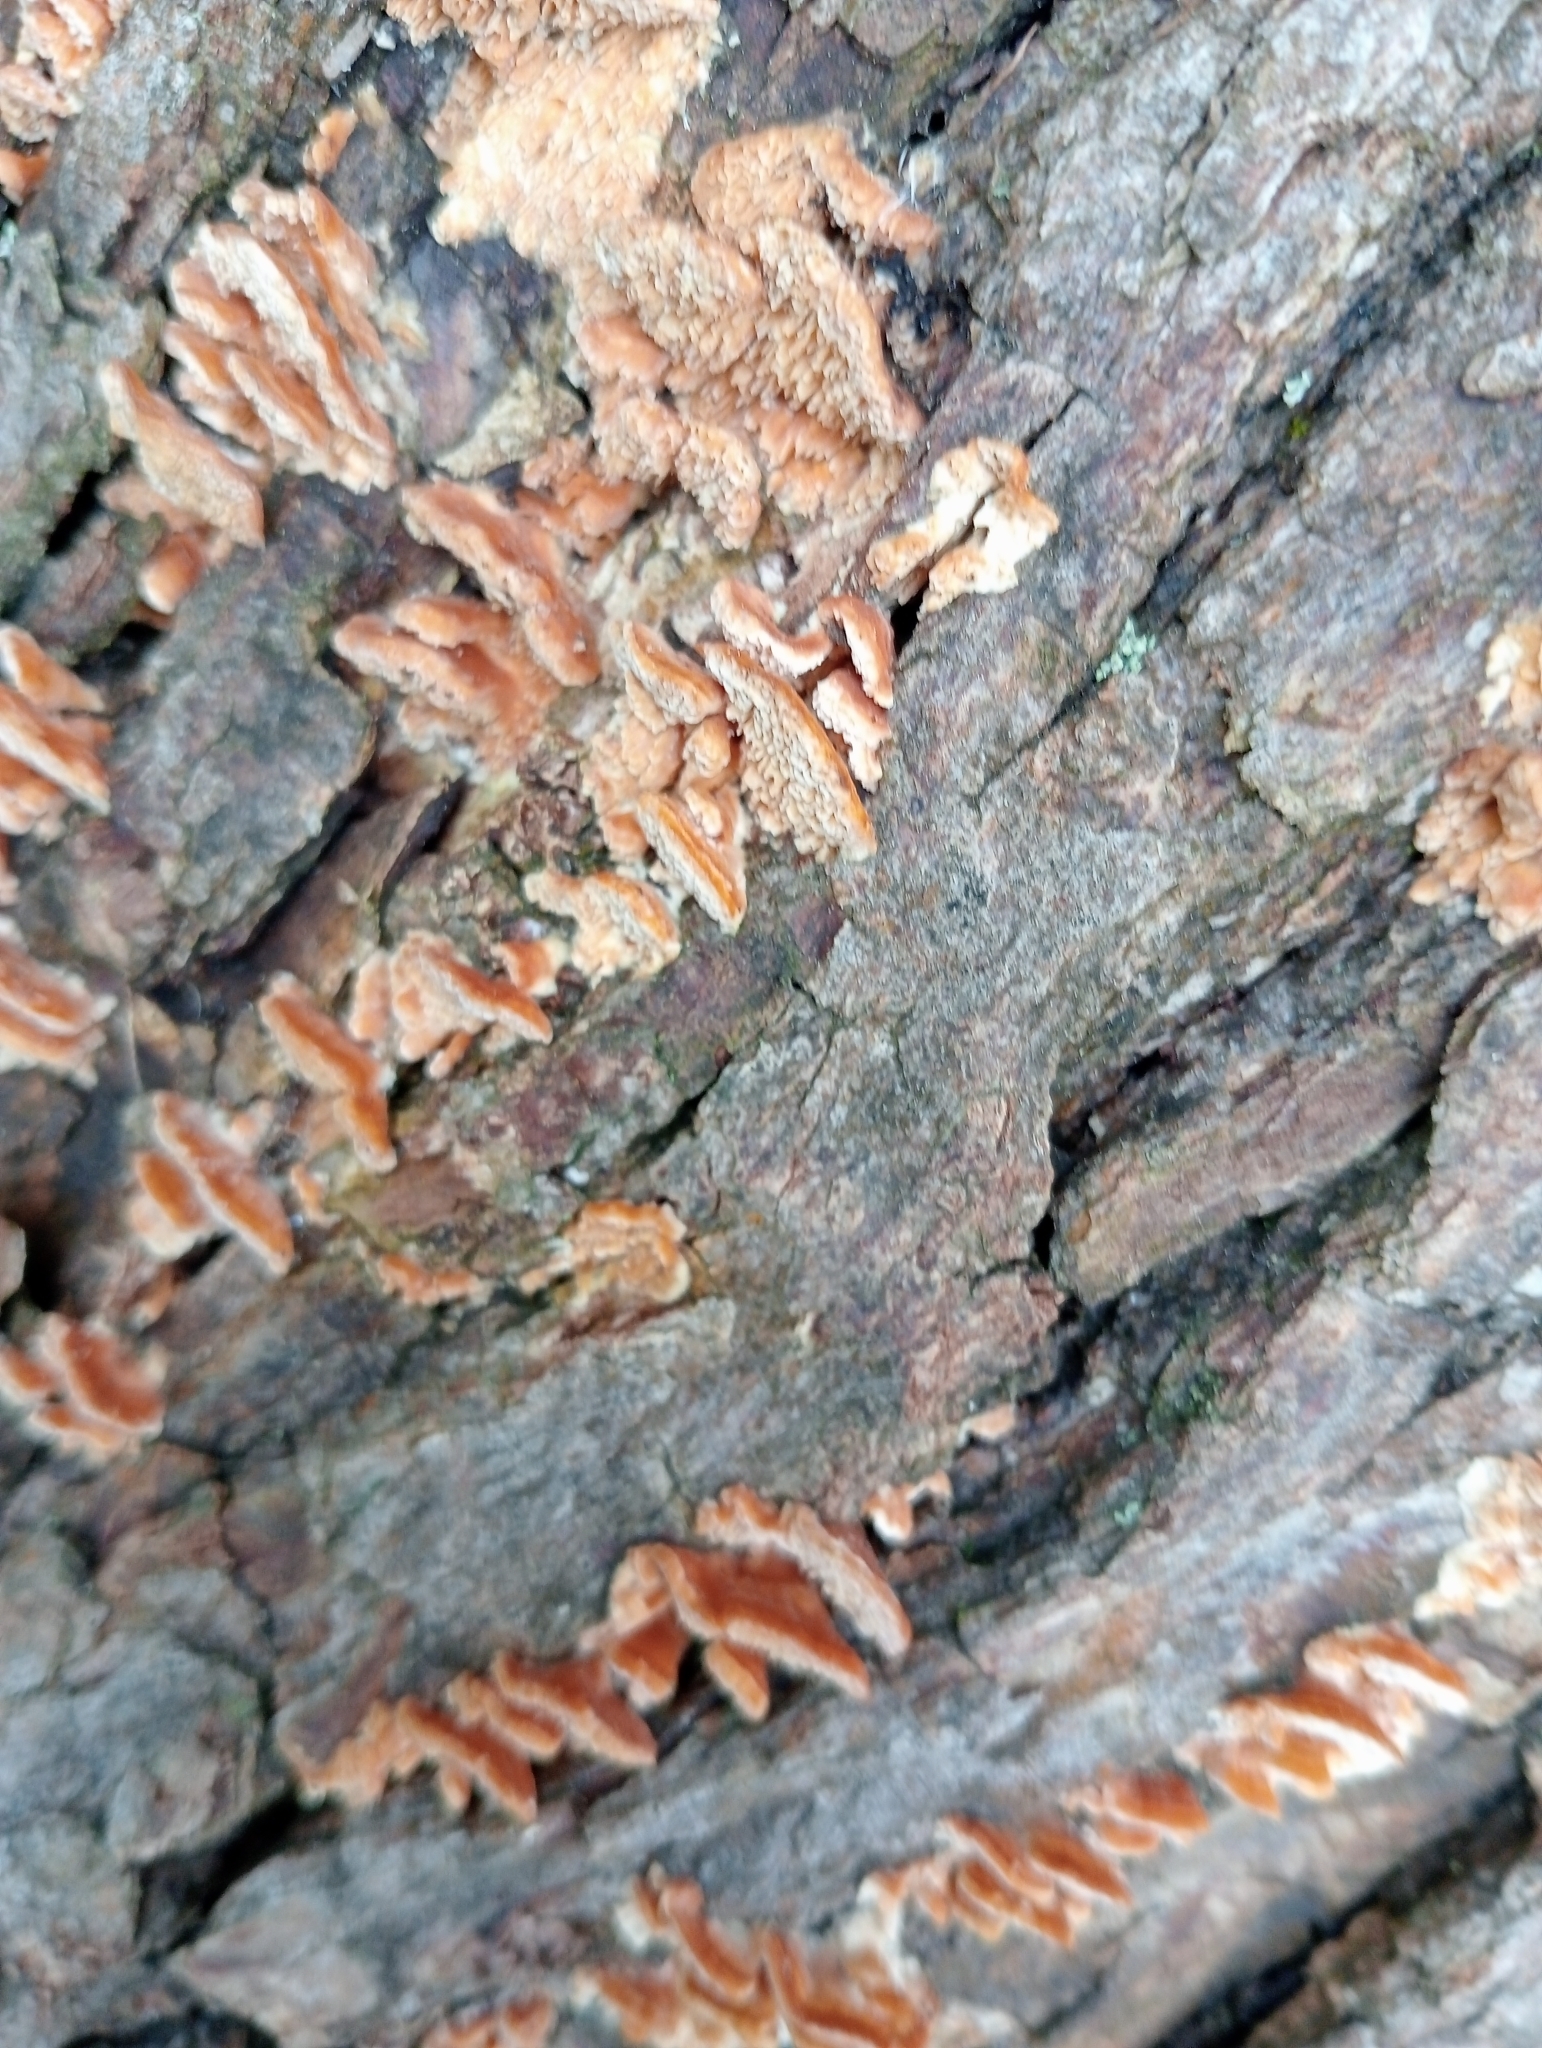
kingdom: Fungi
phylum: Basidiomycota
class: Agaricomycetes
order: Polyporales
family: Cerrenaceae
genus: Cerrena
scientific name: Cerrena zonata
